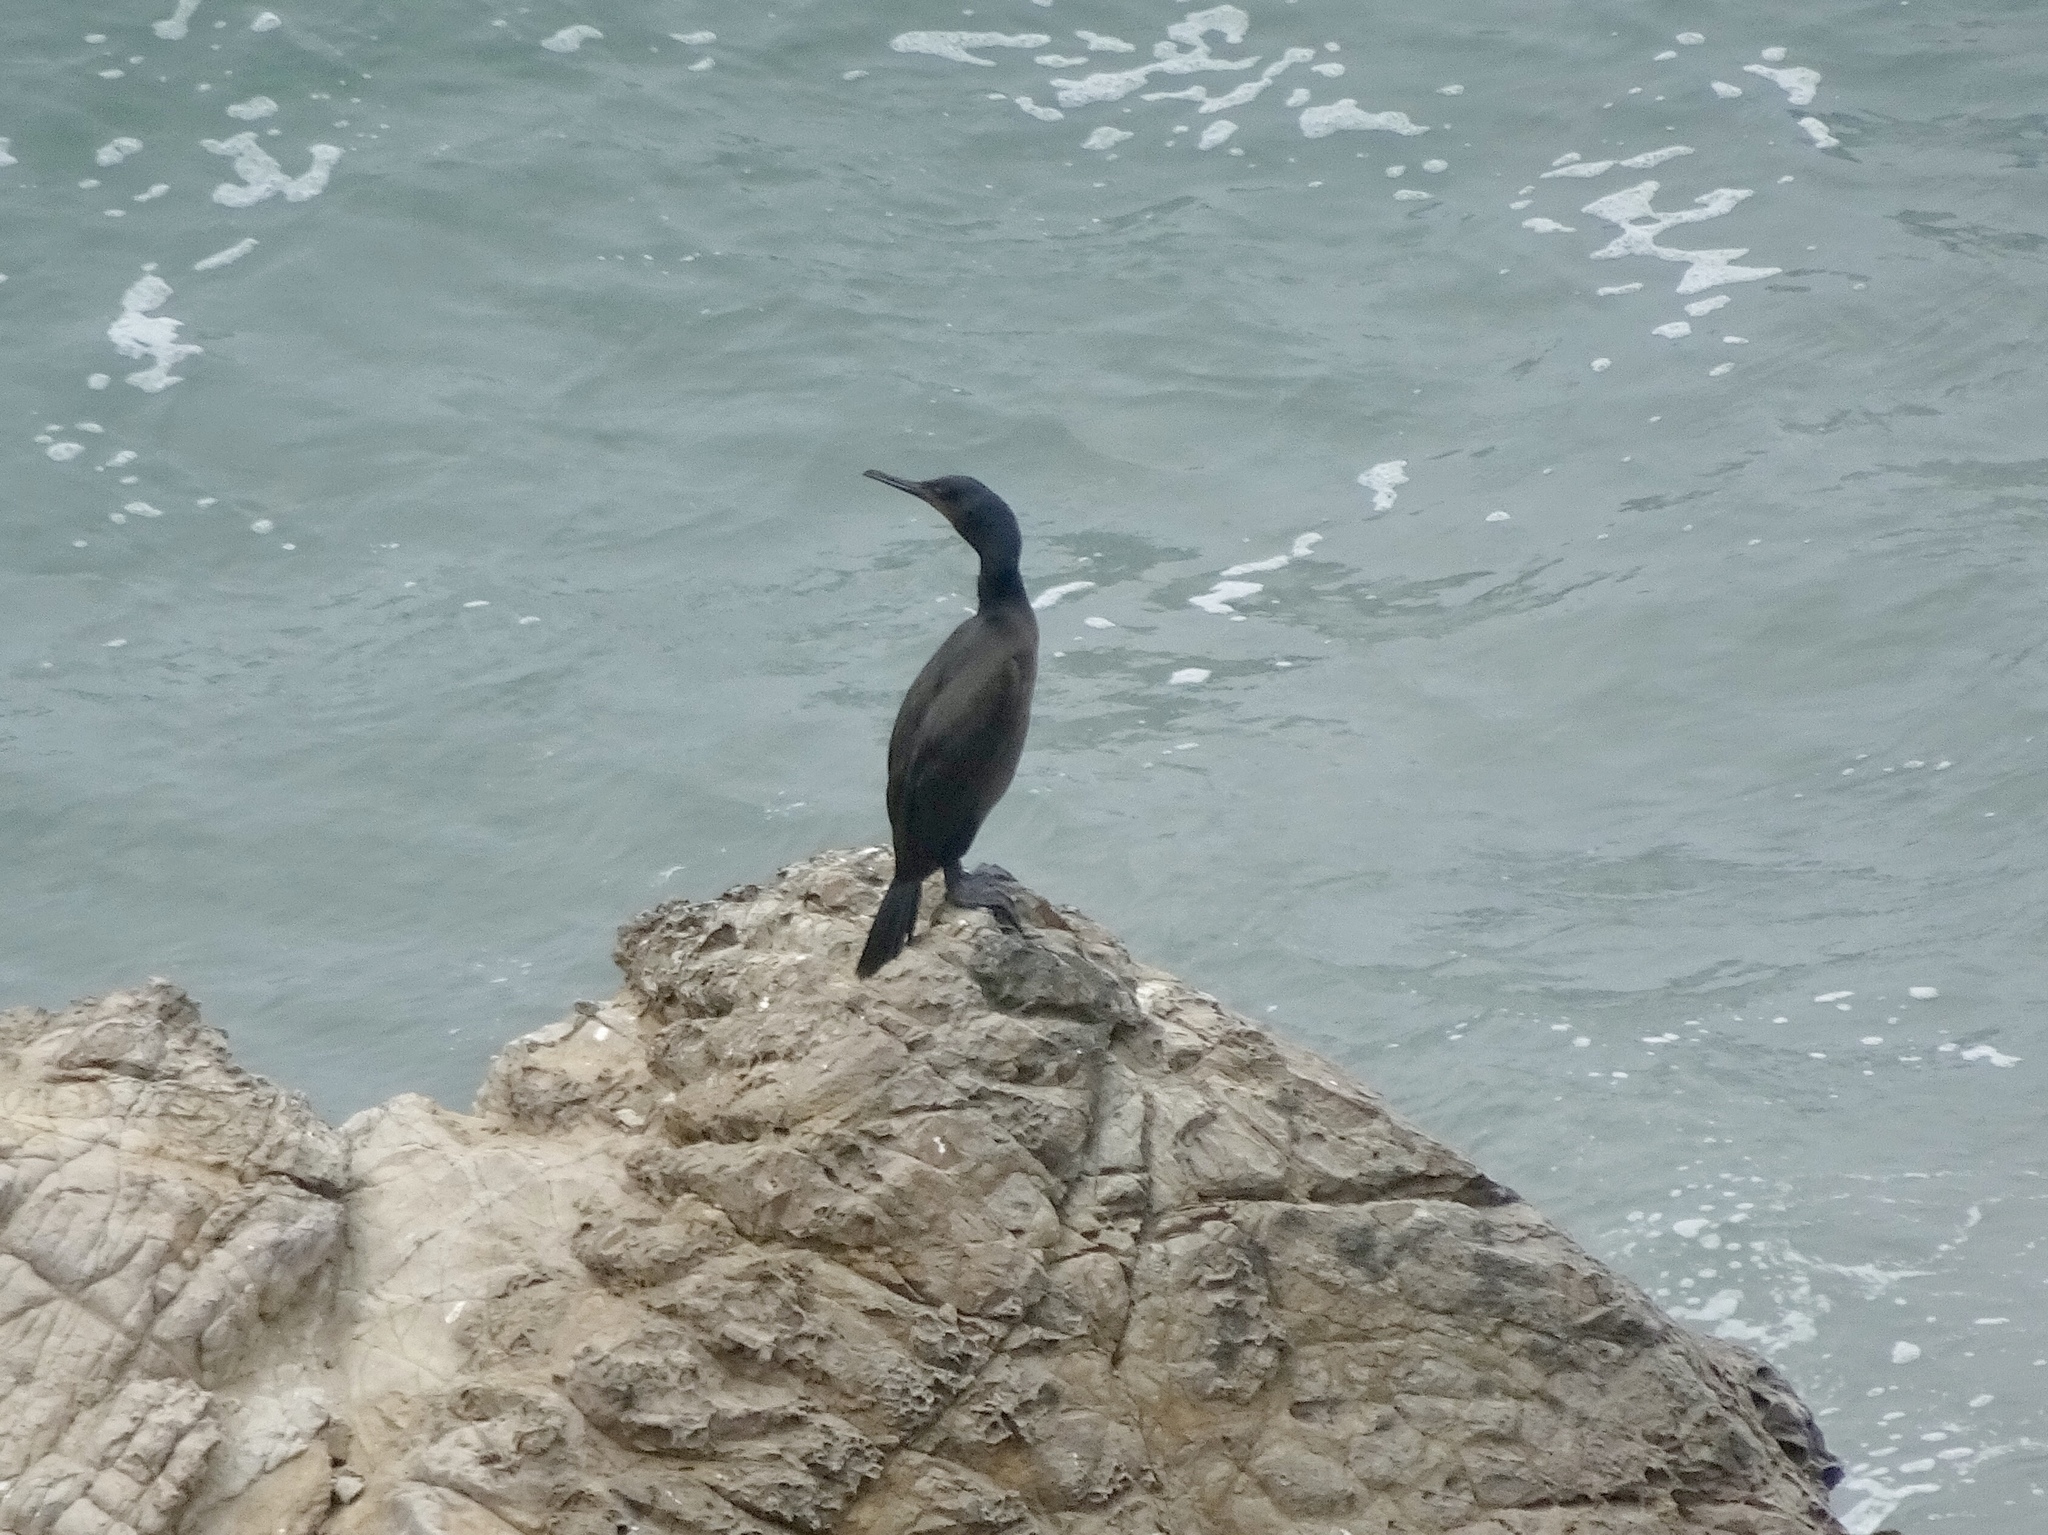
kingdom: Animalia
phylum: Chordata
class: Aves
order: Suliformes
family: Phalacrocoracidae
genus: Urile
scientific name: Urile penicillatus
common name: Brandt's cormorant
